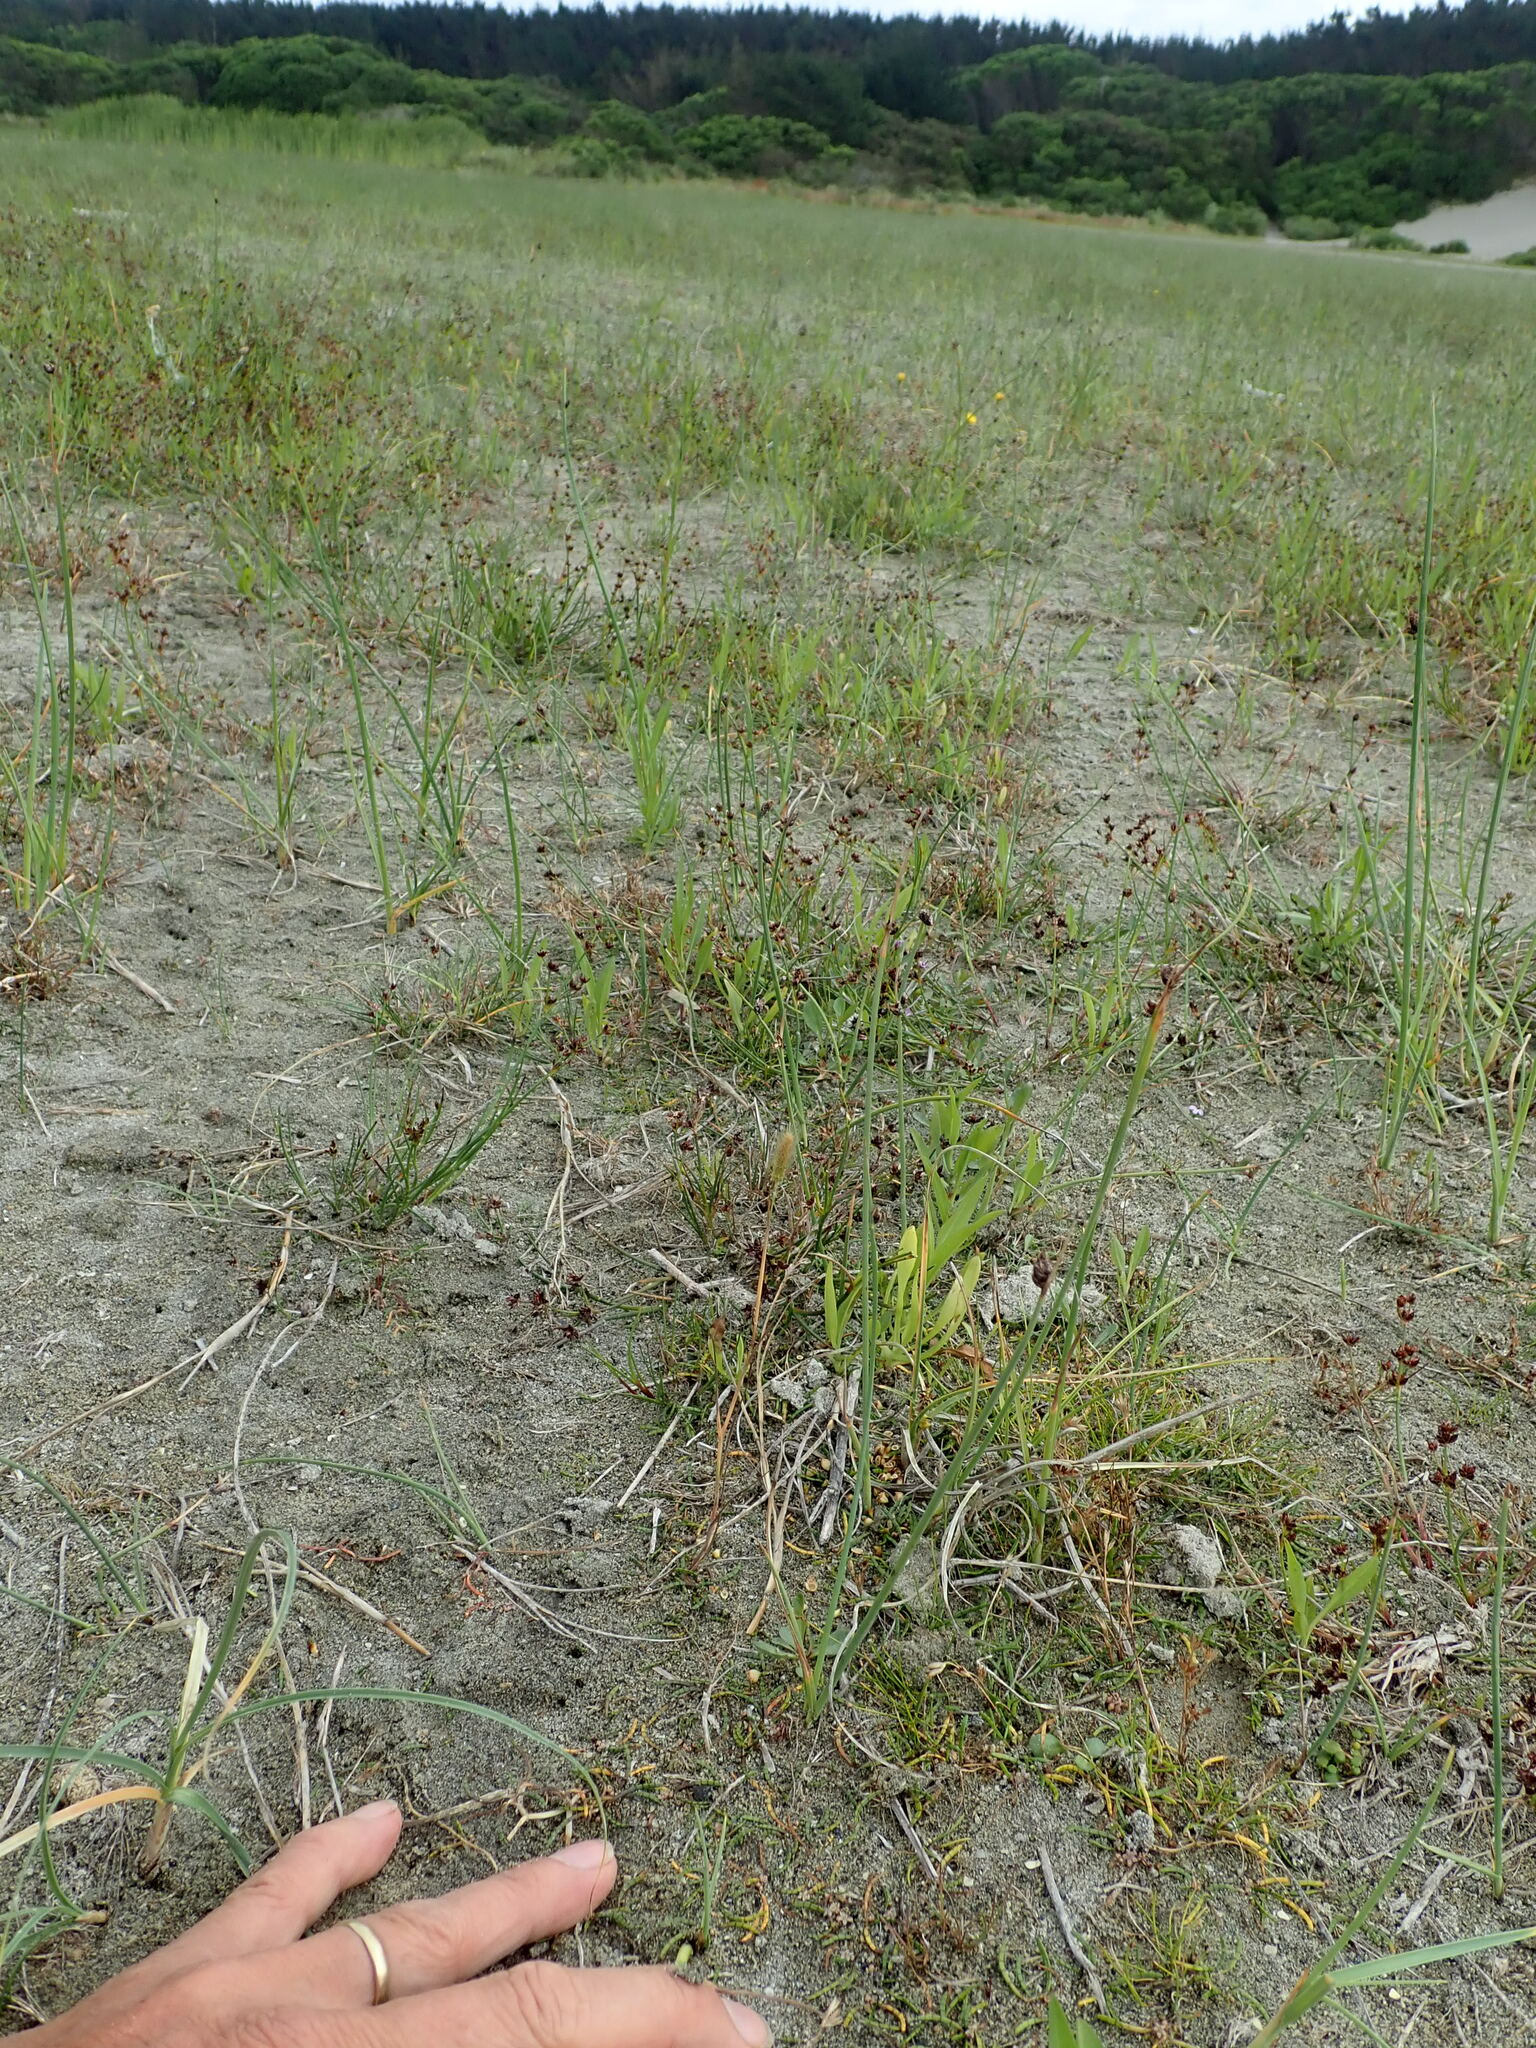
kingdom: Plantae
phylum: Tracheophyta
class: Magnoliopsida
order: Apiales
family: Apiaceae
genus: Lilaeopsis
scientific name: Lilaeopsis novae-zelandiae
